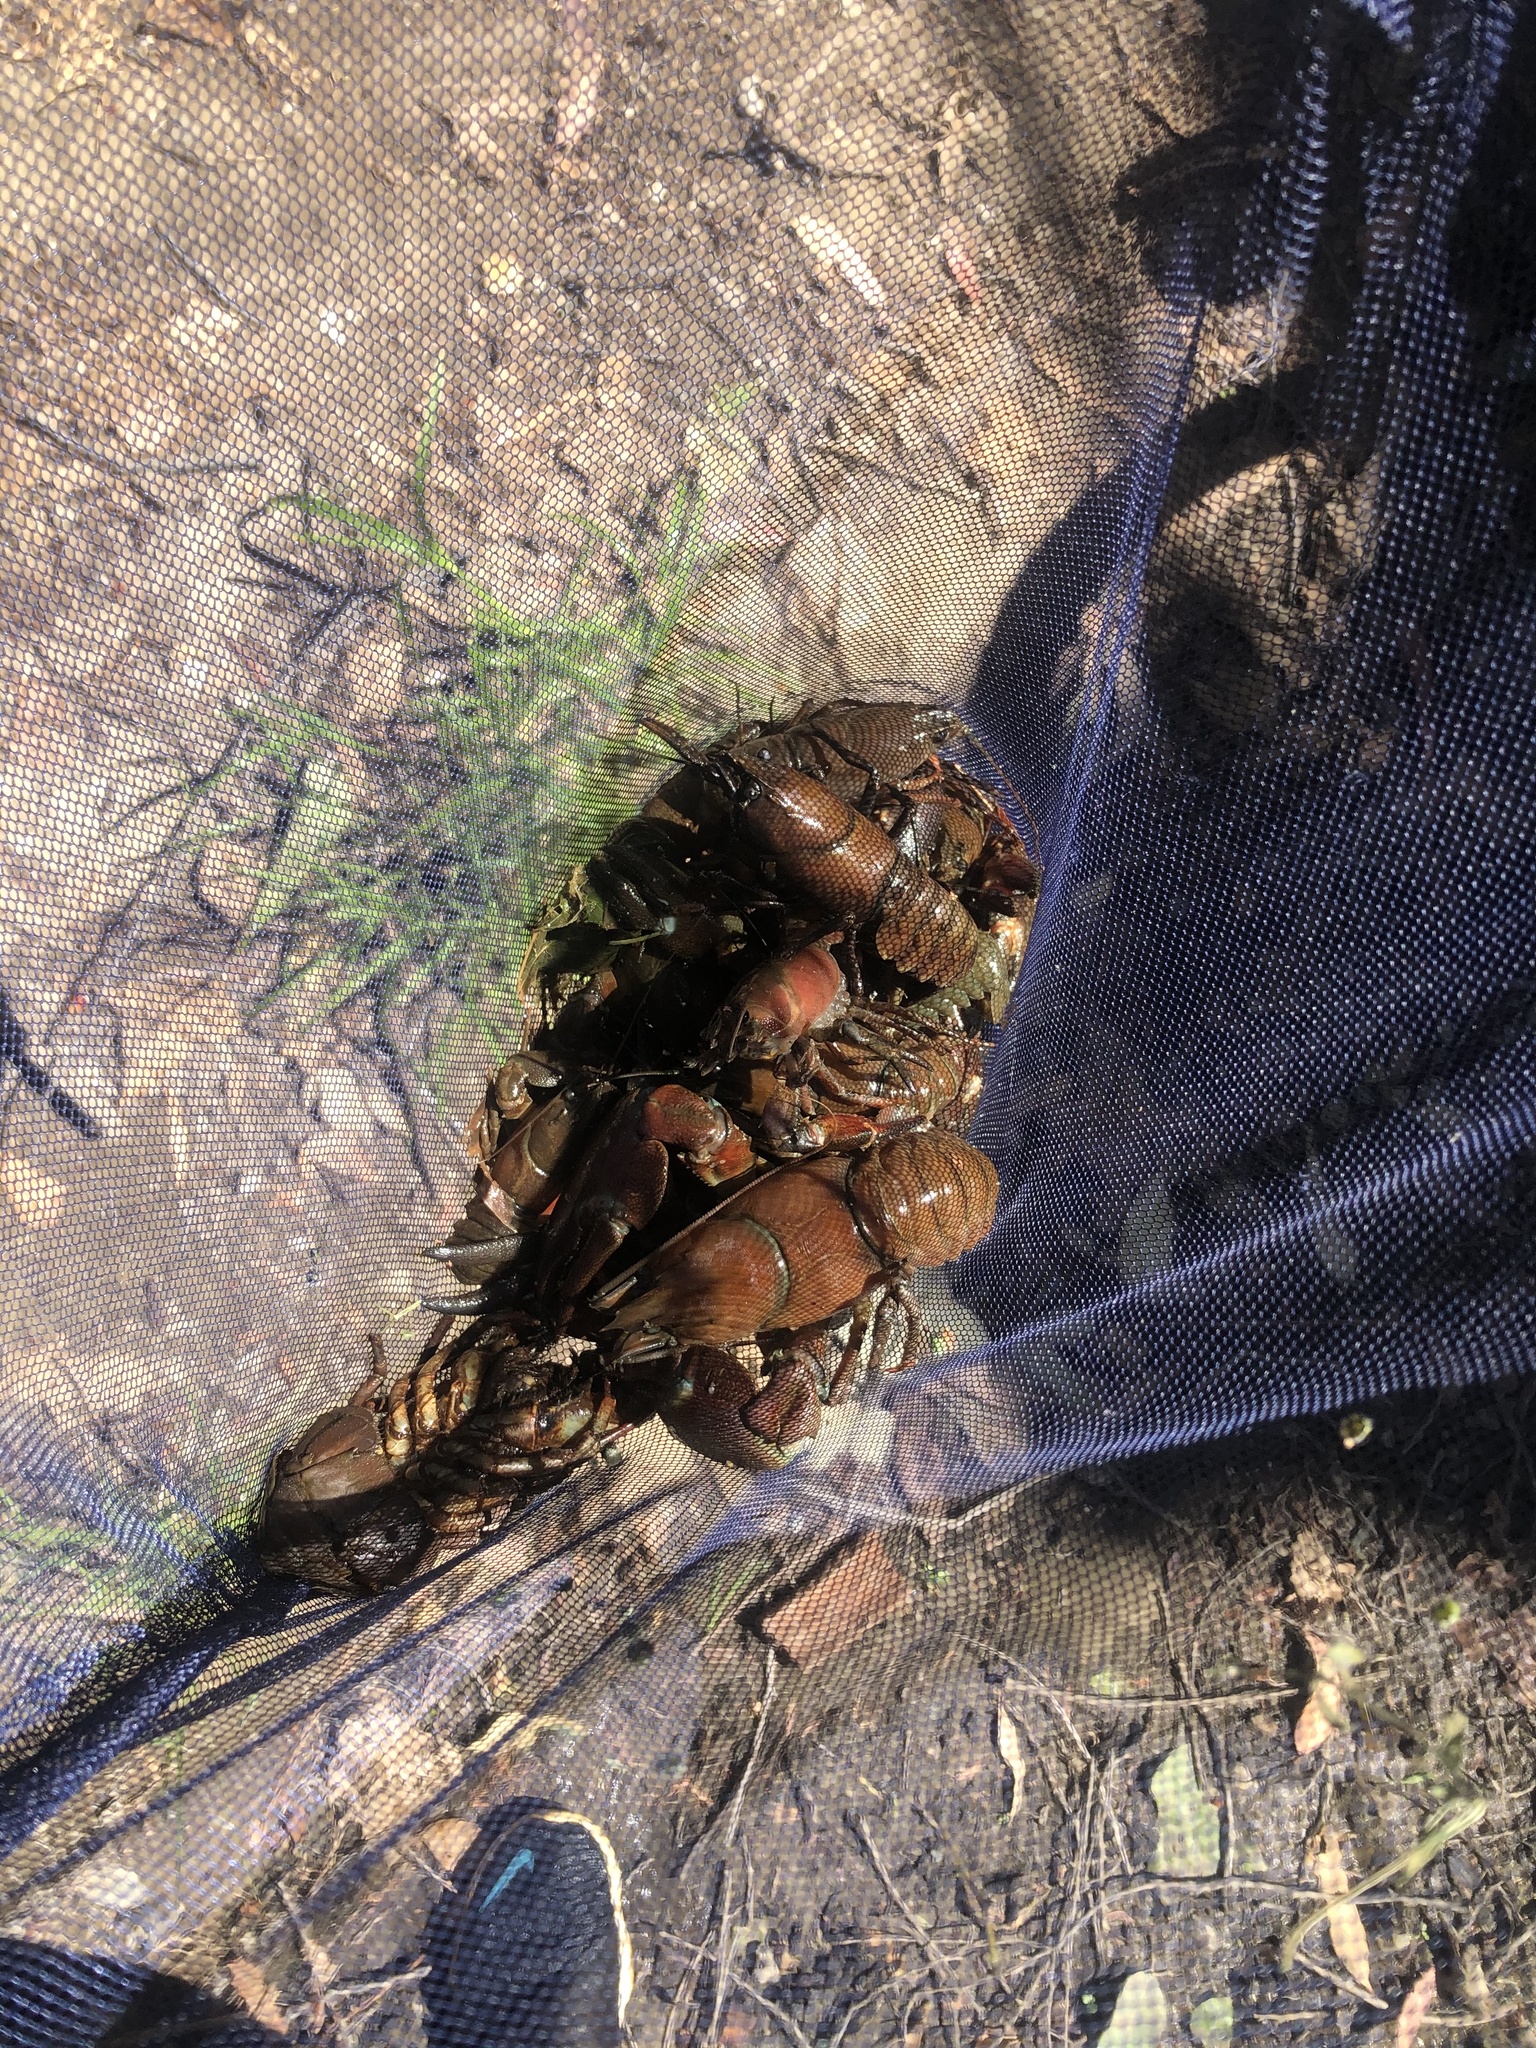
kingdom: Animalia
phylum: Arthropoda
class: Malacostraca
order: Decapoda
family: Astacidae
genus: Pacifastacus
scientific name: Pacifastacus leniusculus
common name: Signal crayfish
